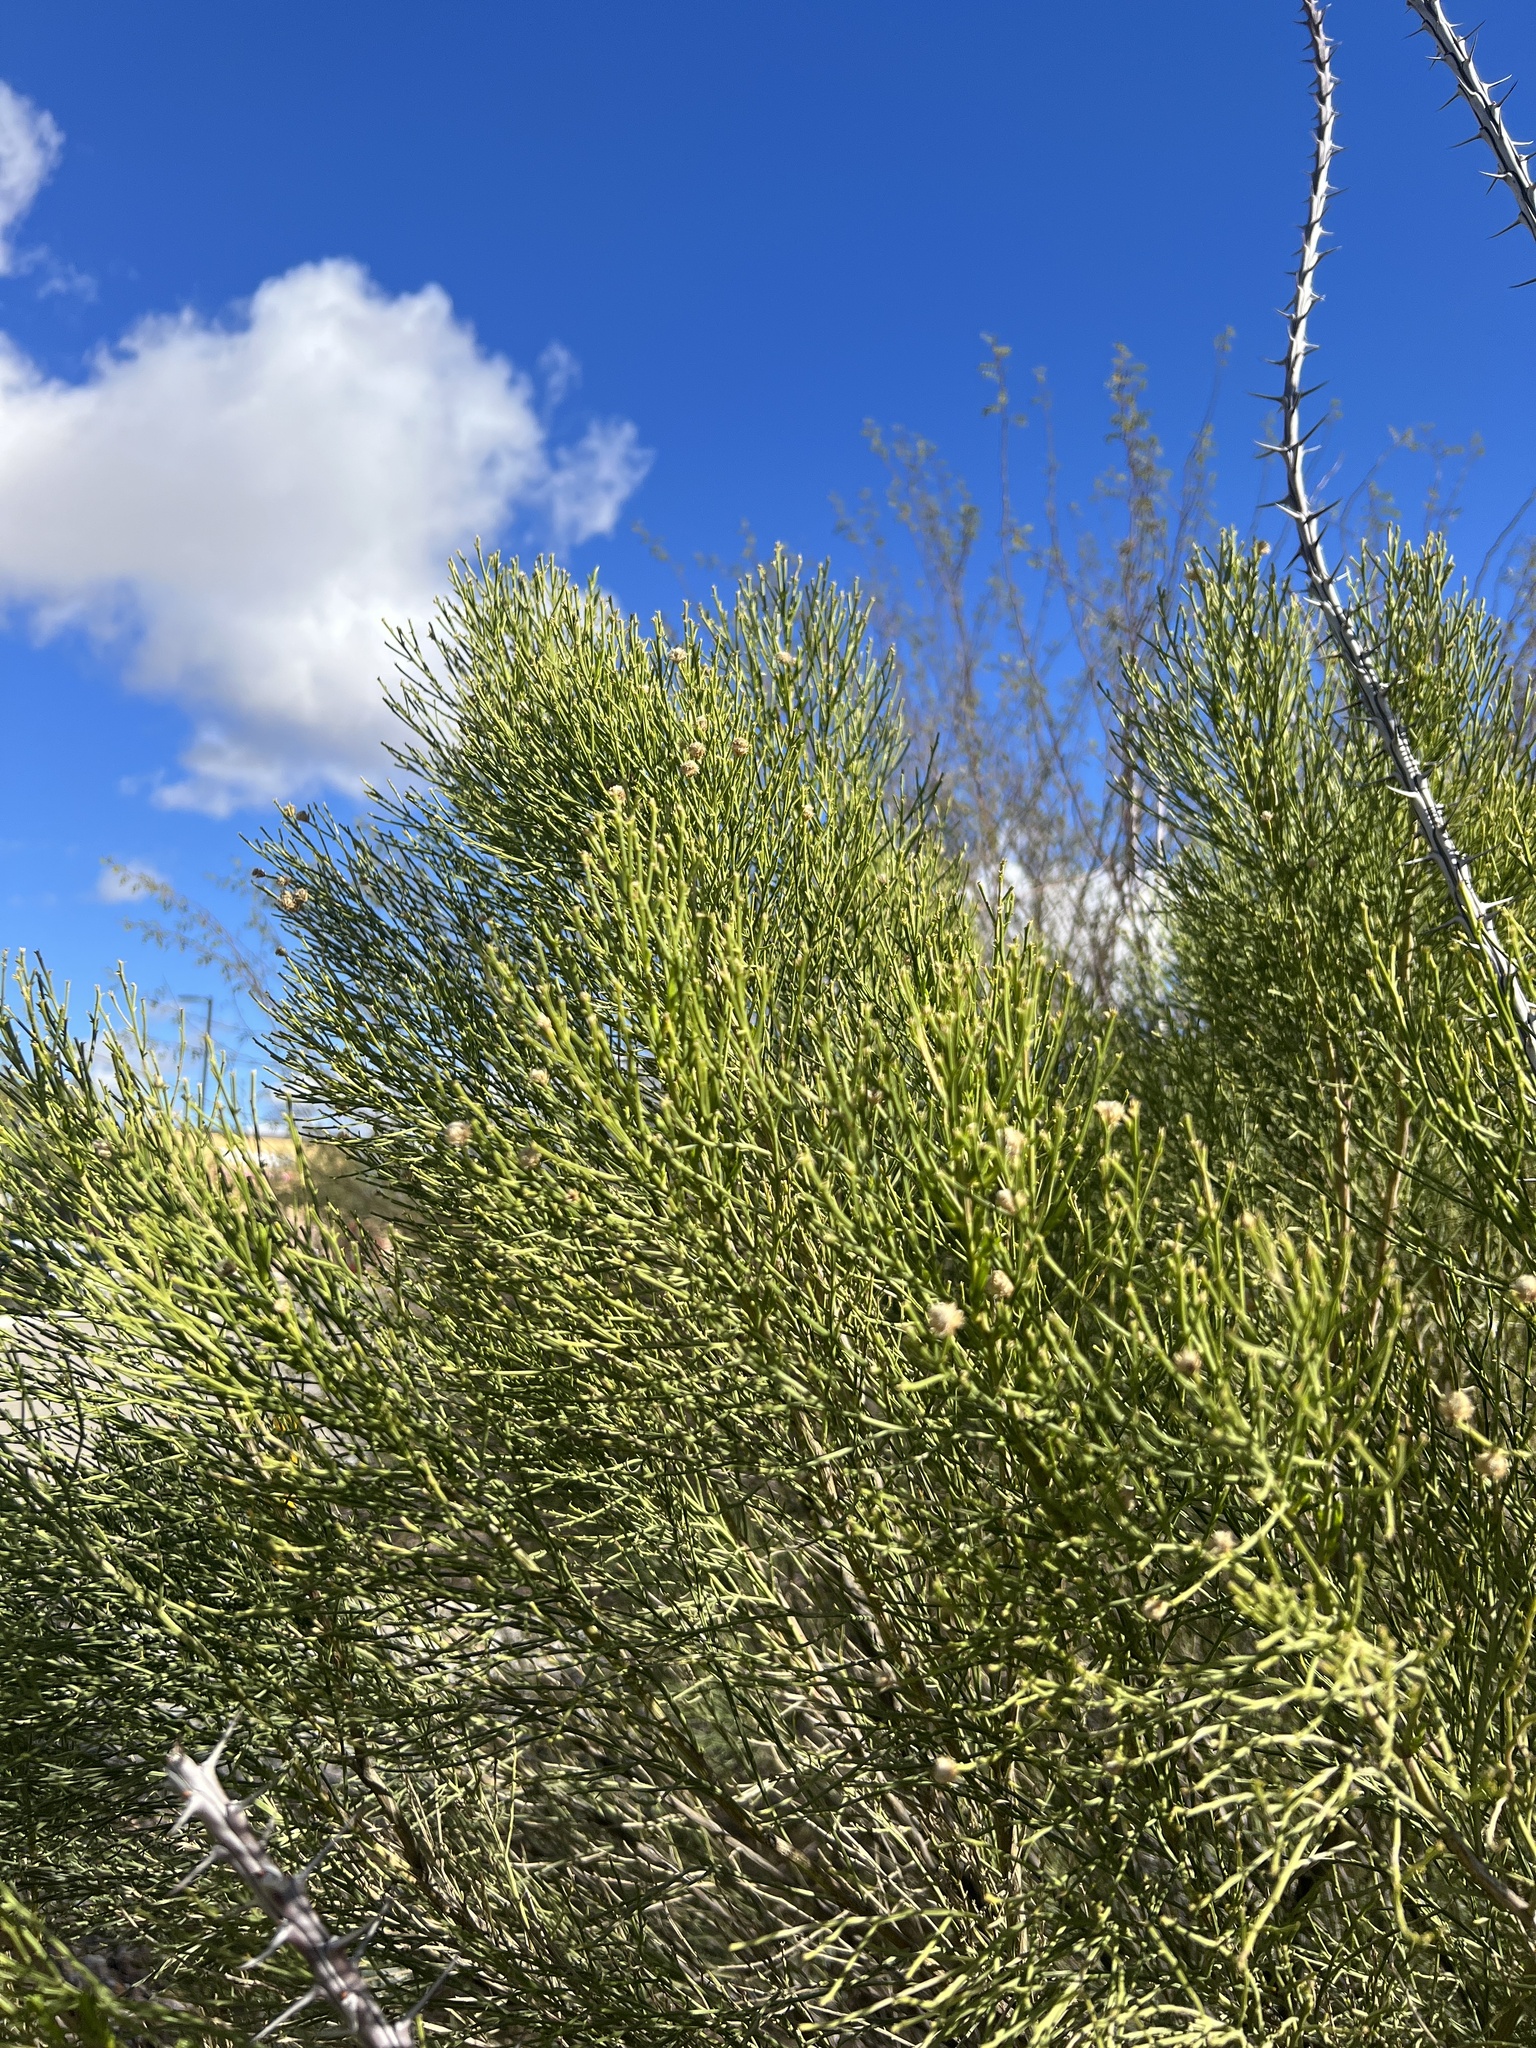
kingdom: Plantae
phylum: Tracheophyta
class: Magnoliopsida
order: Asterales
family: Asteraceae
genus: Baccharis
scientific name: Baccharis sarothroides
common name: Desert-broom
